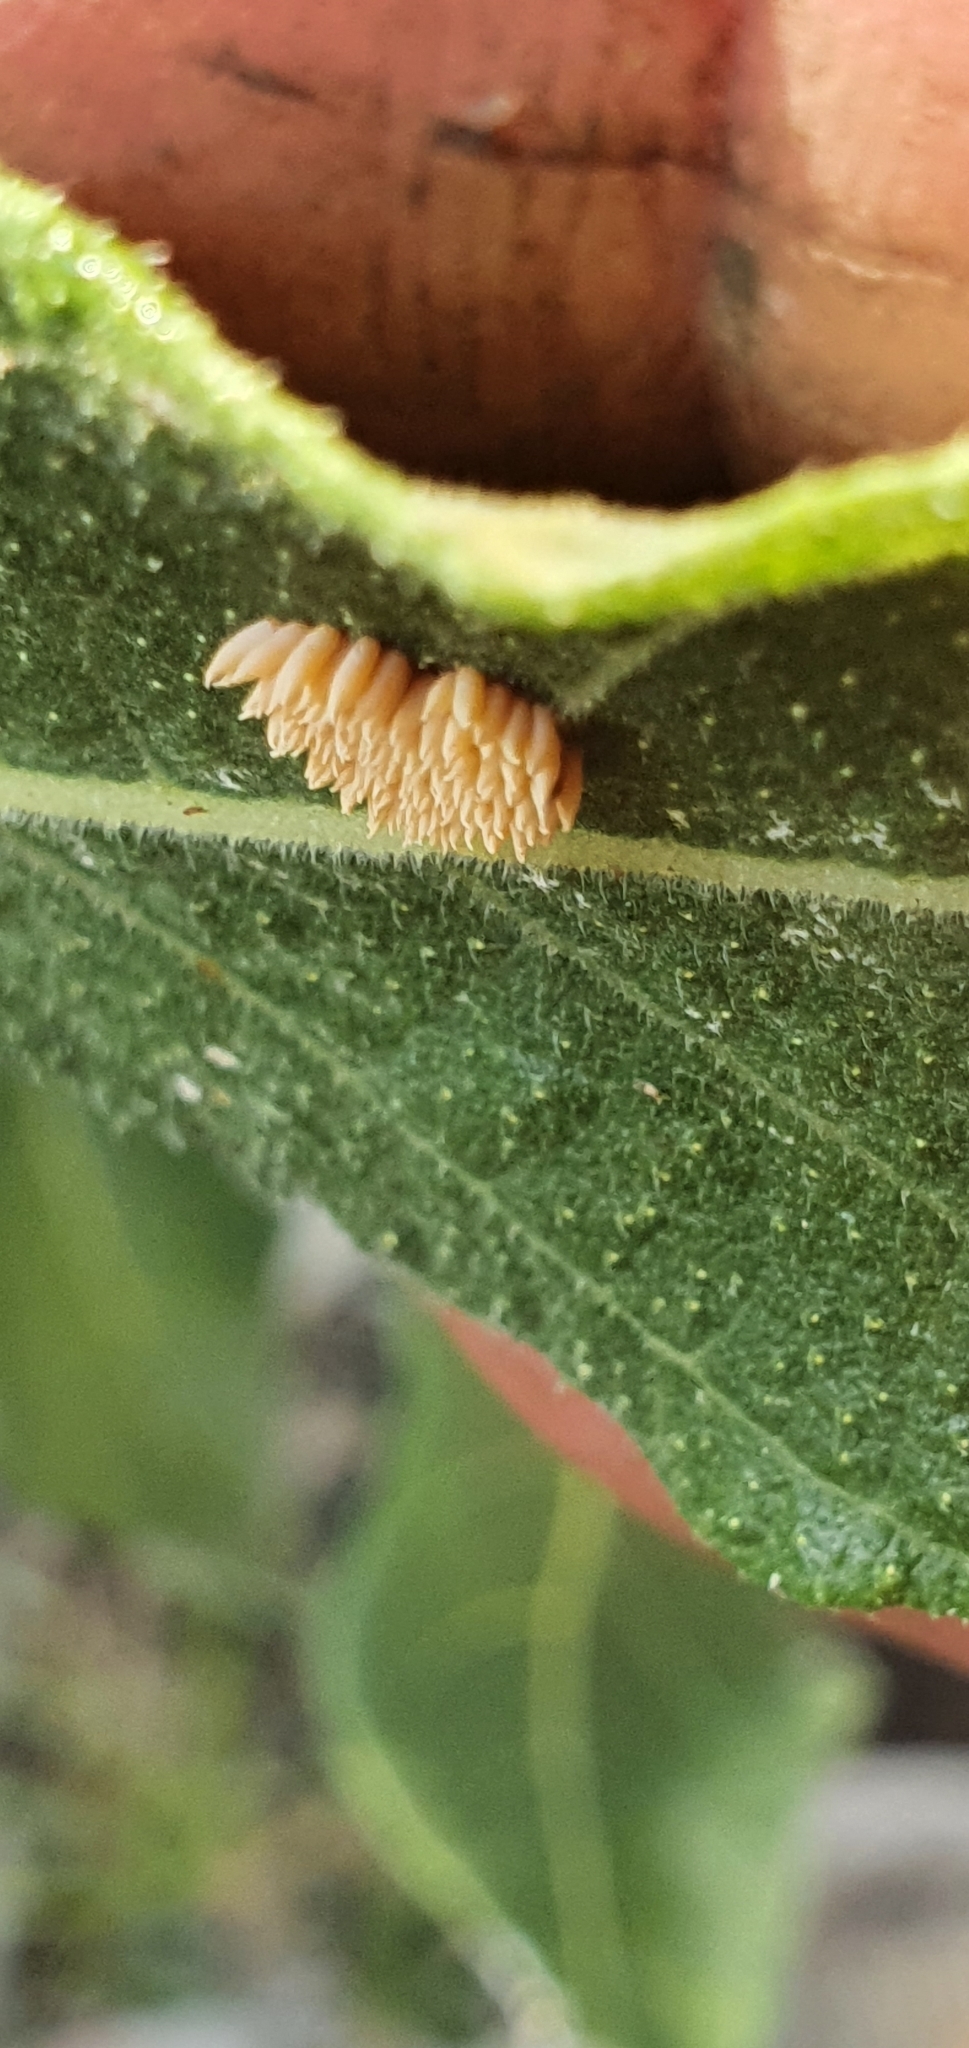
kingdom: Animalia
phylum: Arthropoda
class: Insecta
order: Coleoptera
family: Chrysomelidae
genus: Poneridia
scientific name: Poneridia semipullata
